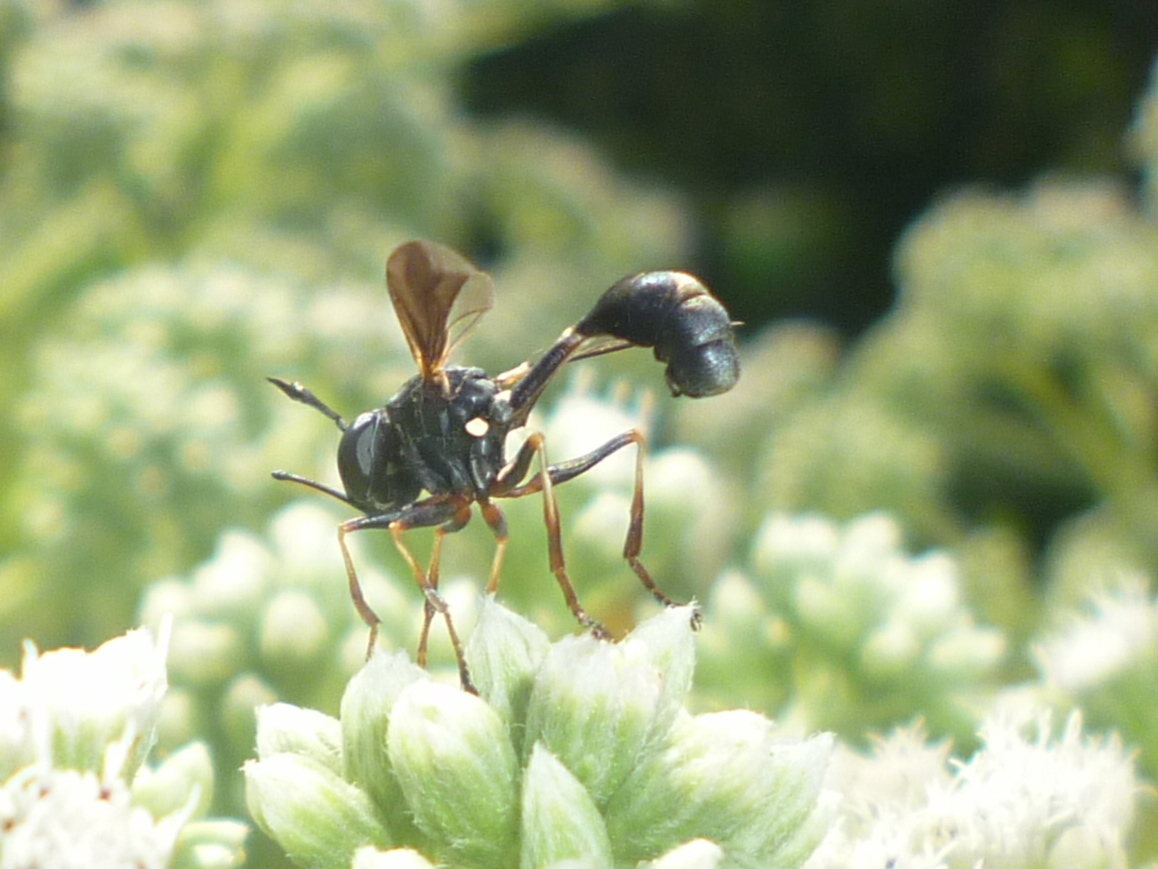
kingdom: Animalia
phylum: Arthropoda
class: Insecta
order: Diptera
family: Conopidae
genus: Physocephala
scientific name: Physocephala tibialis
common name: Common eastern physocephala
